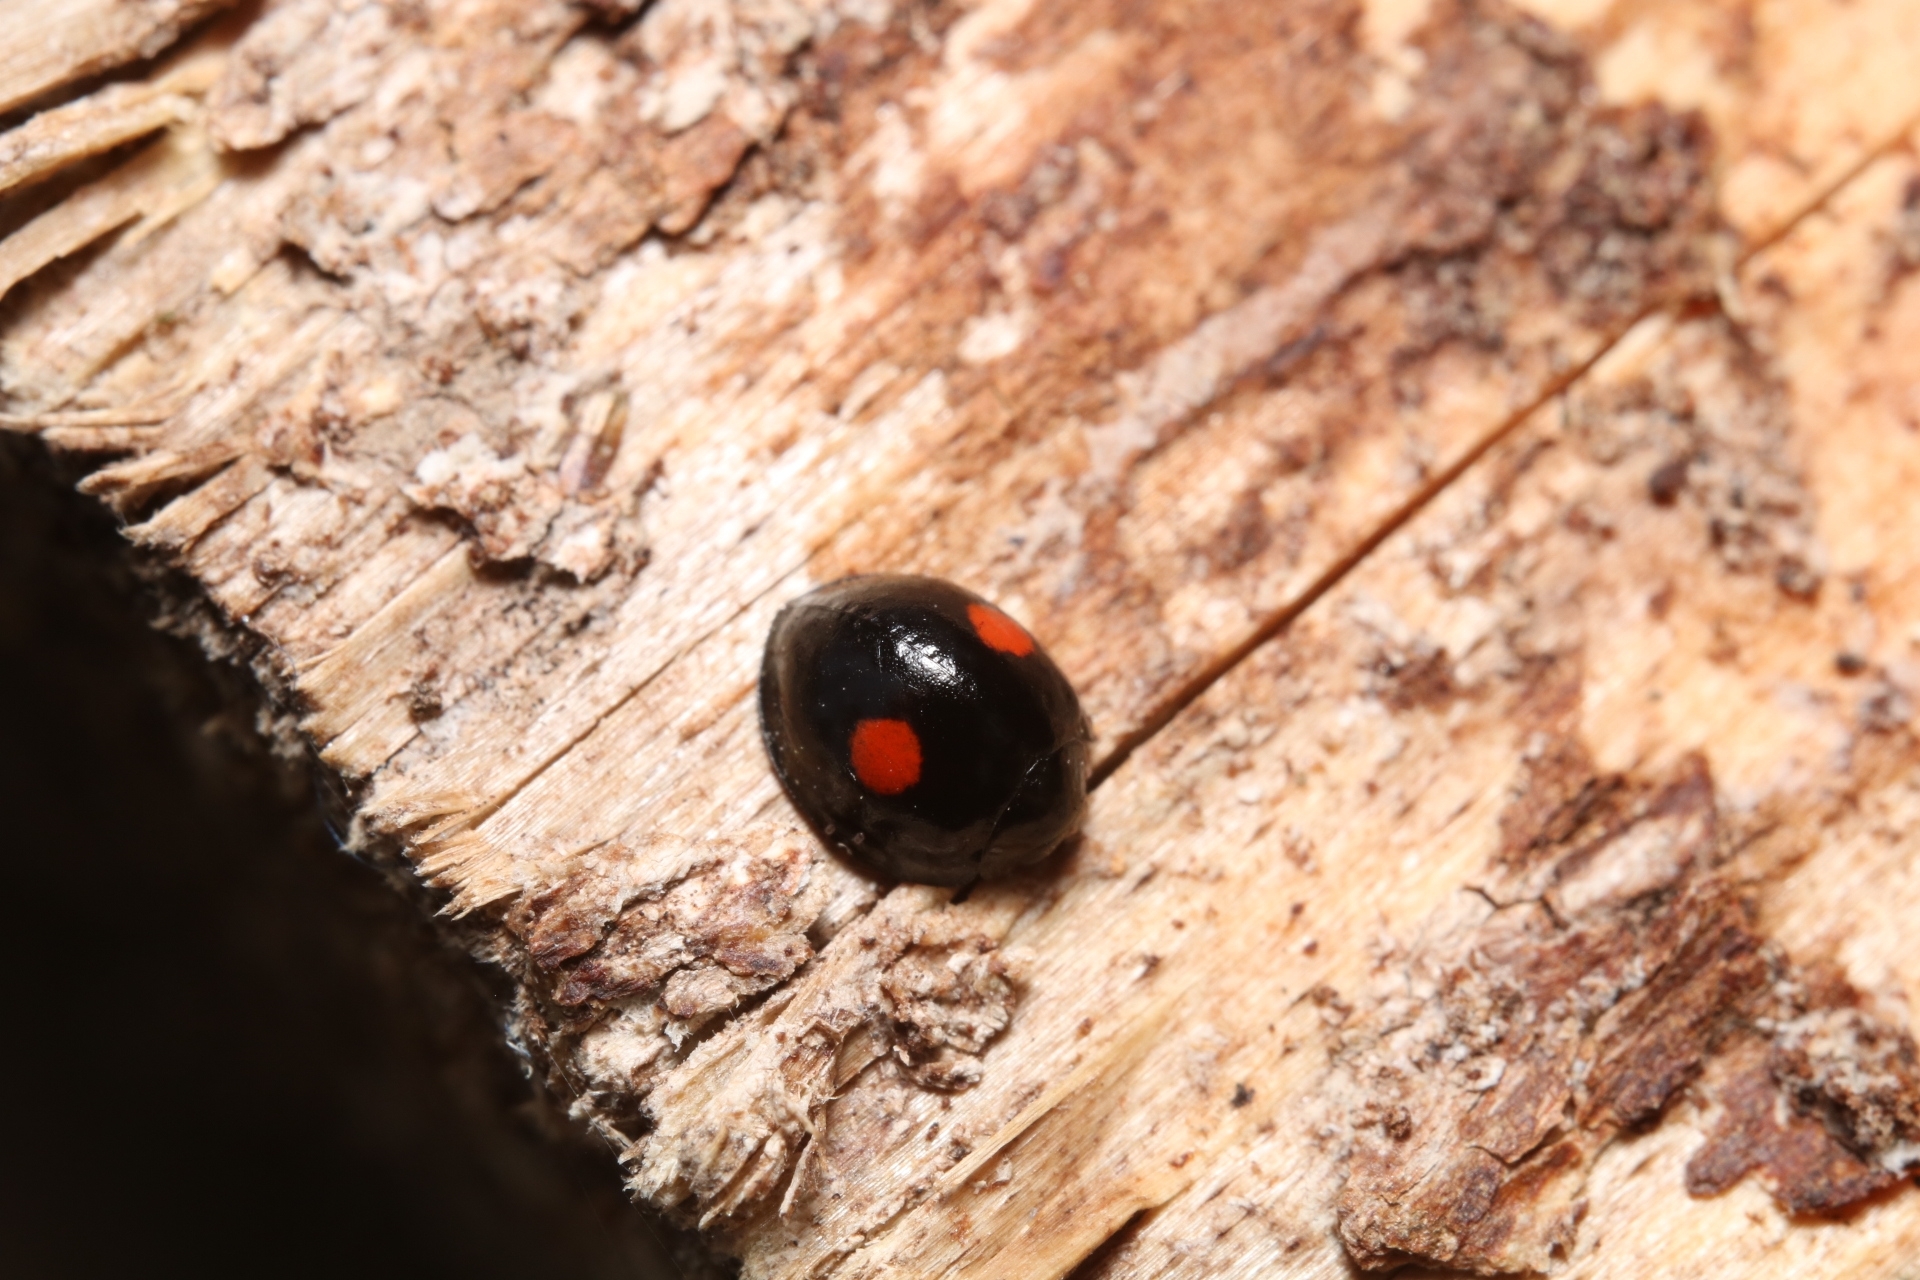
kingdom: Animalia
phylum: Arthropoda
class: Insecta
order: Coleoptera
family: Coccinellidae
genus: Chilocorus
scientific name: Chilocorus stigma
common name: Twicestabbed lady beetle
